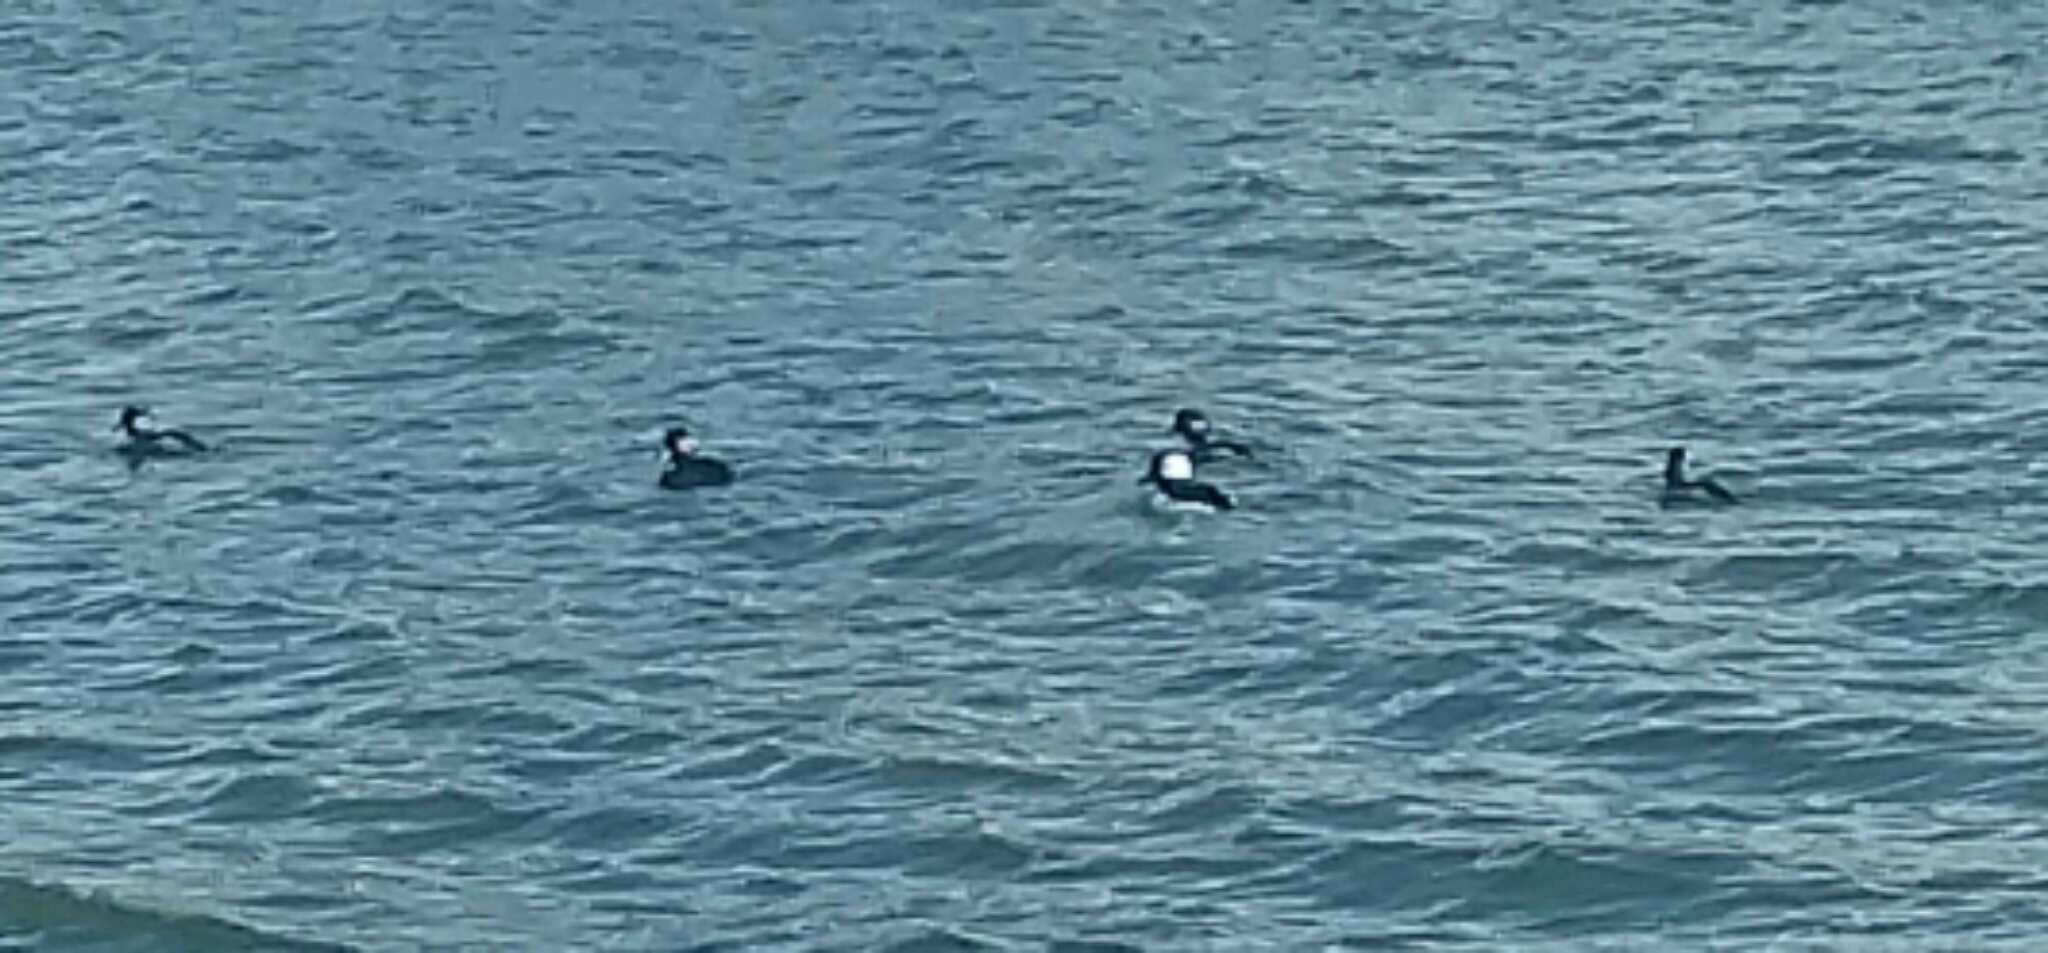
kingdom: Animalia
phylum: Chordata
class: Aves
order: Anseriformes
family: Anatidae
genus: Bucephala
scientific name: Bucephala albeola
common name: Bufflehead
